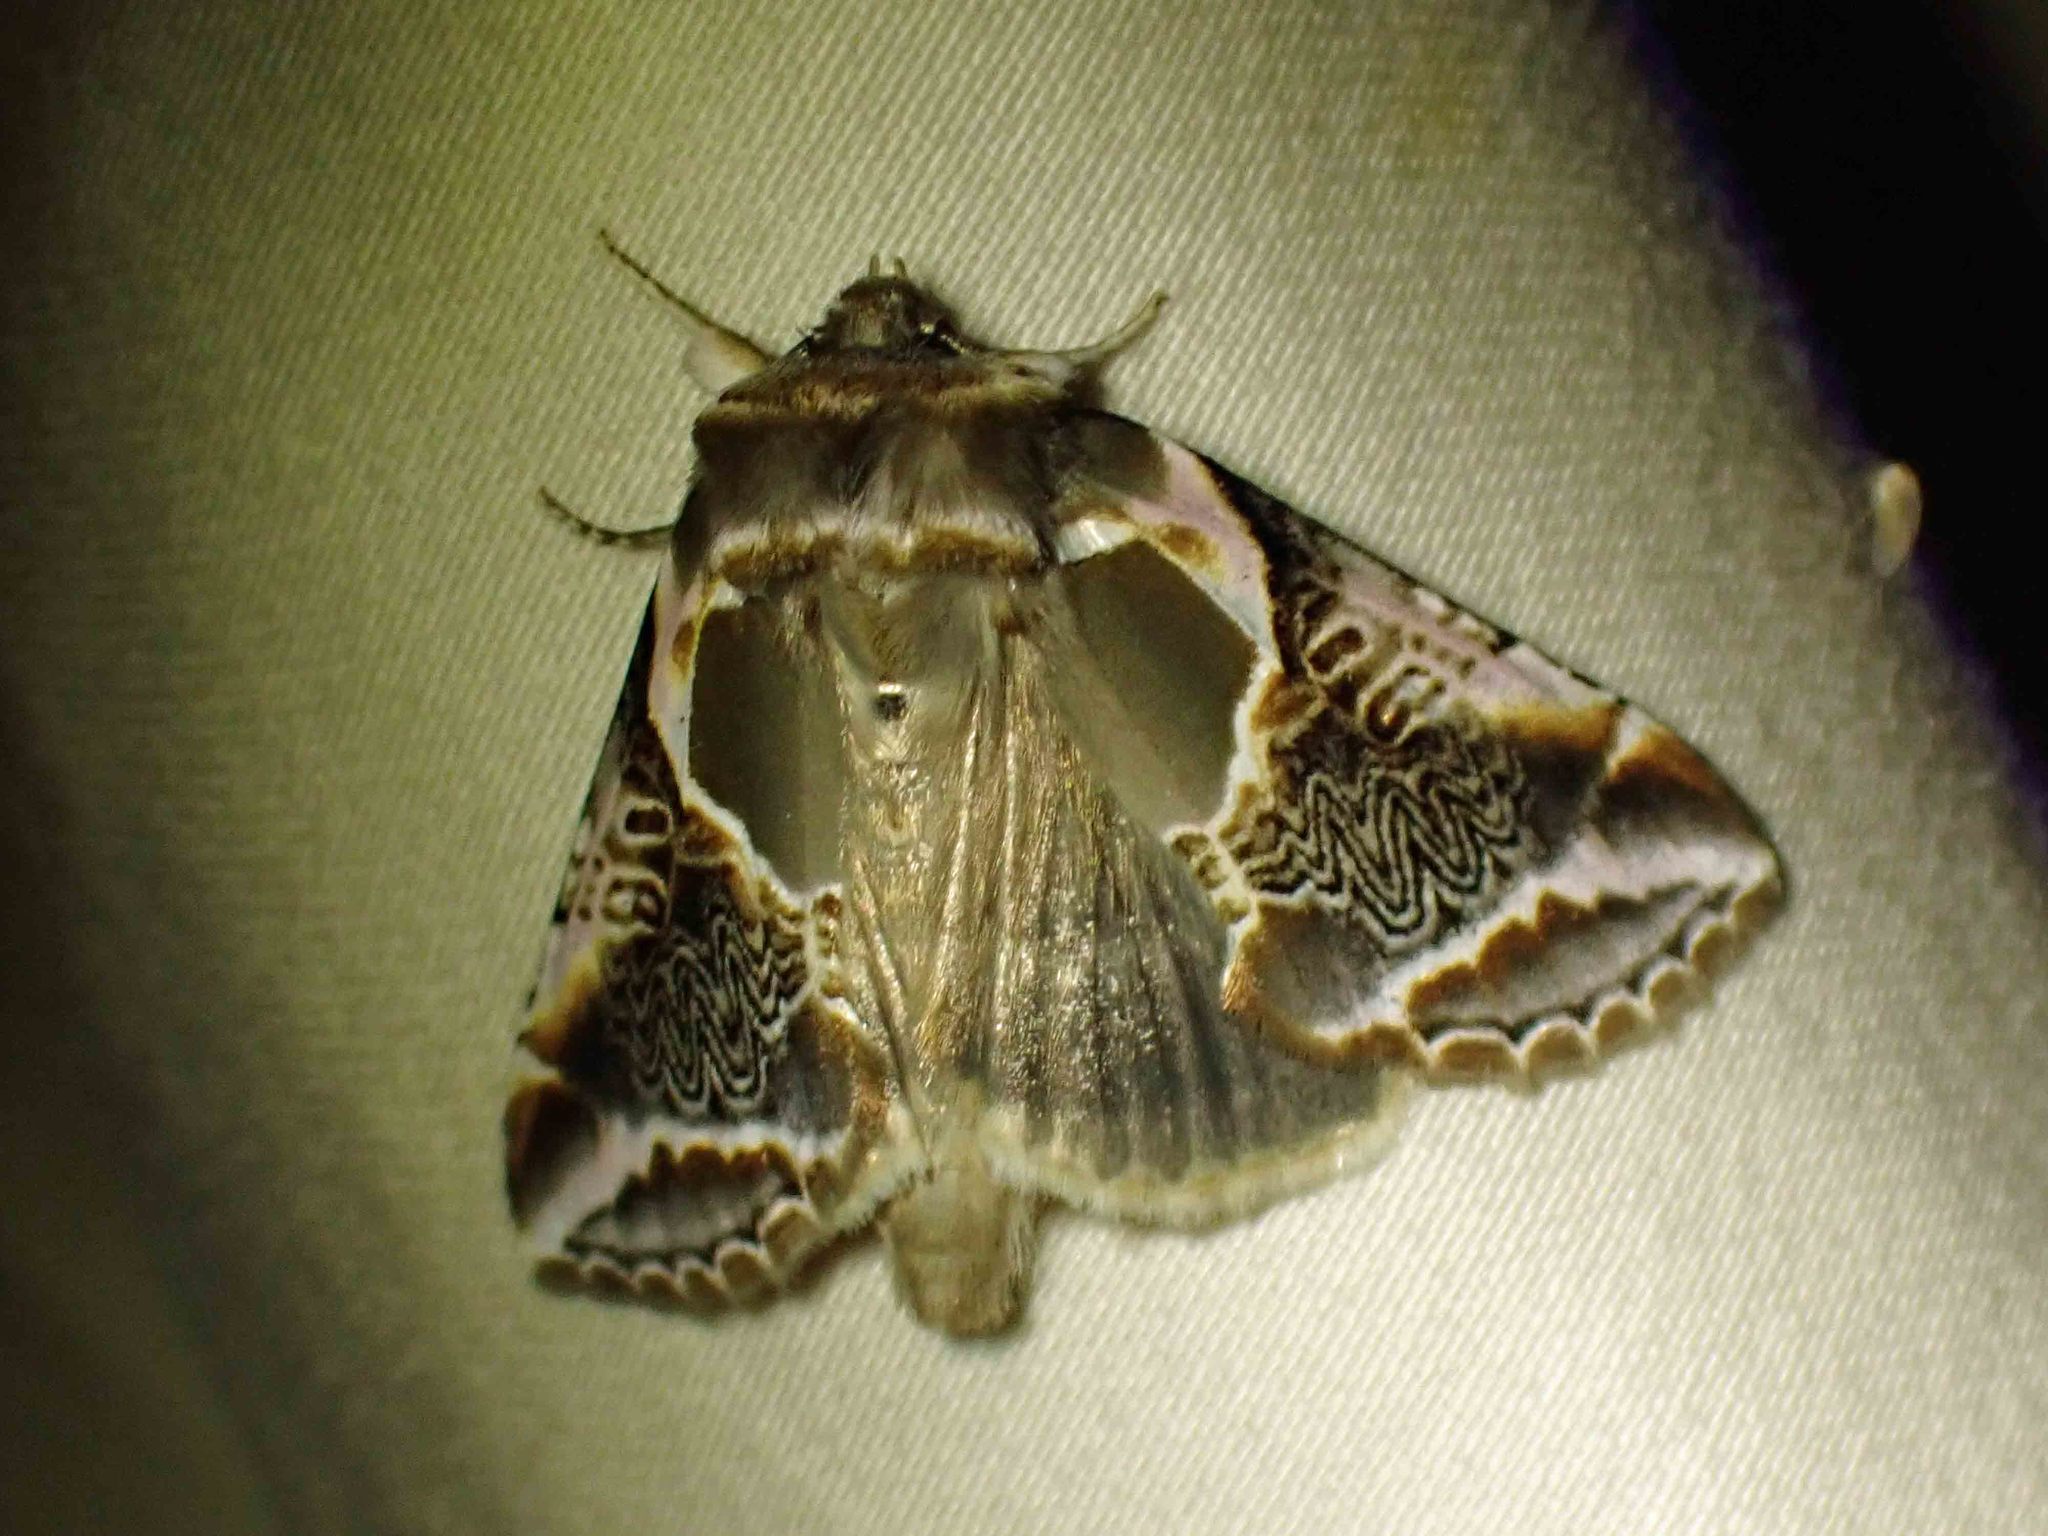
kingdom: Animalia
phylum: Arthropoda
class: Insecta
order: Lepidoptera
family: Drepanidae
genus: Habrosyne
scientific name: Habrosyne scripta
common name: Lettered habrosyne moth
